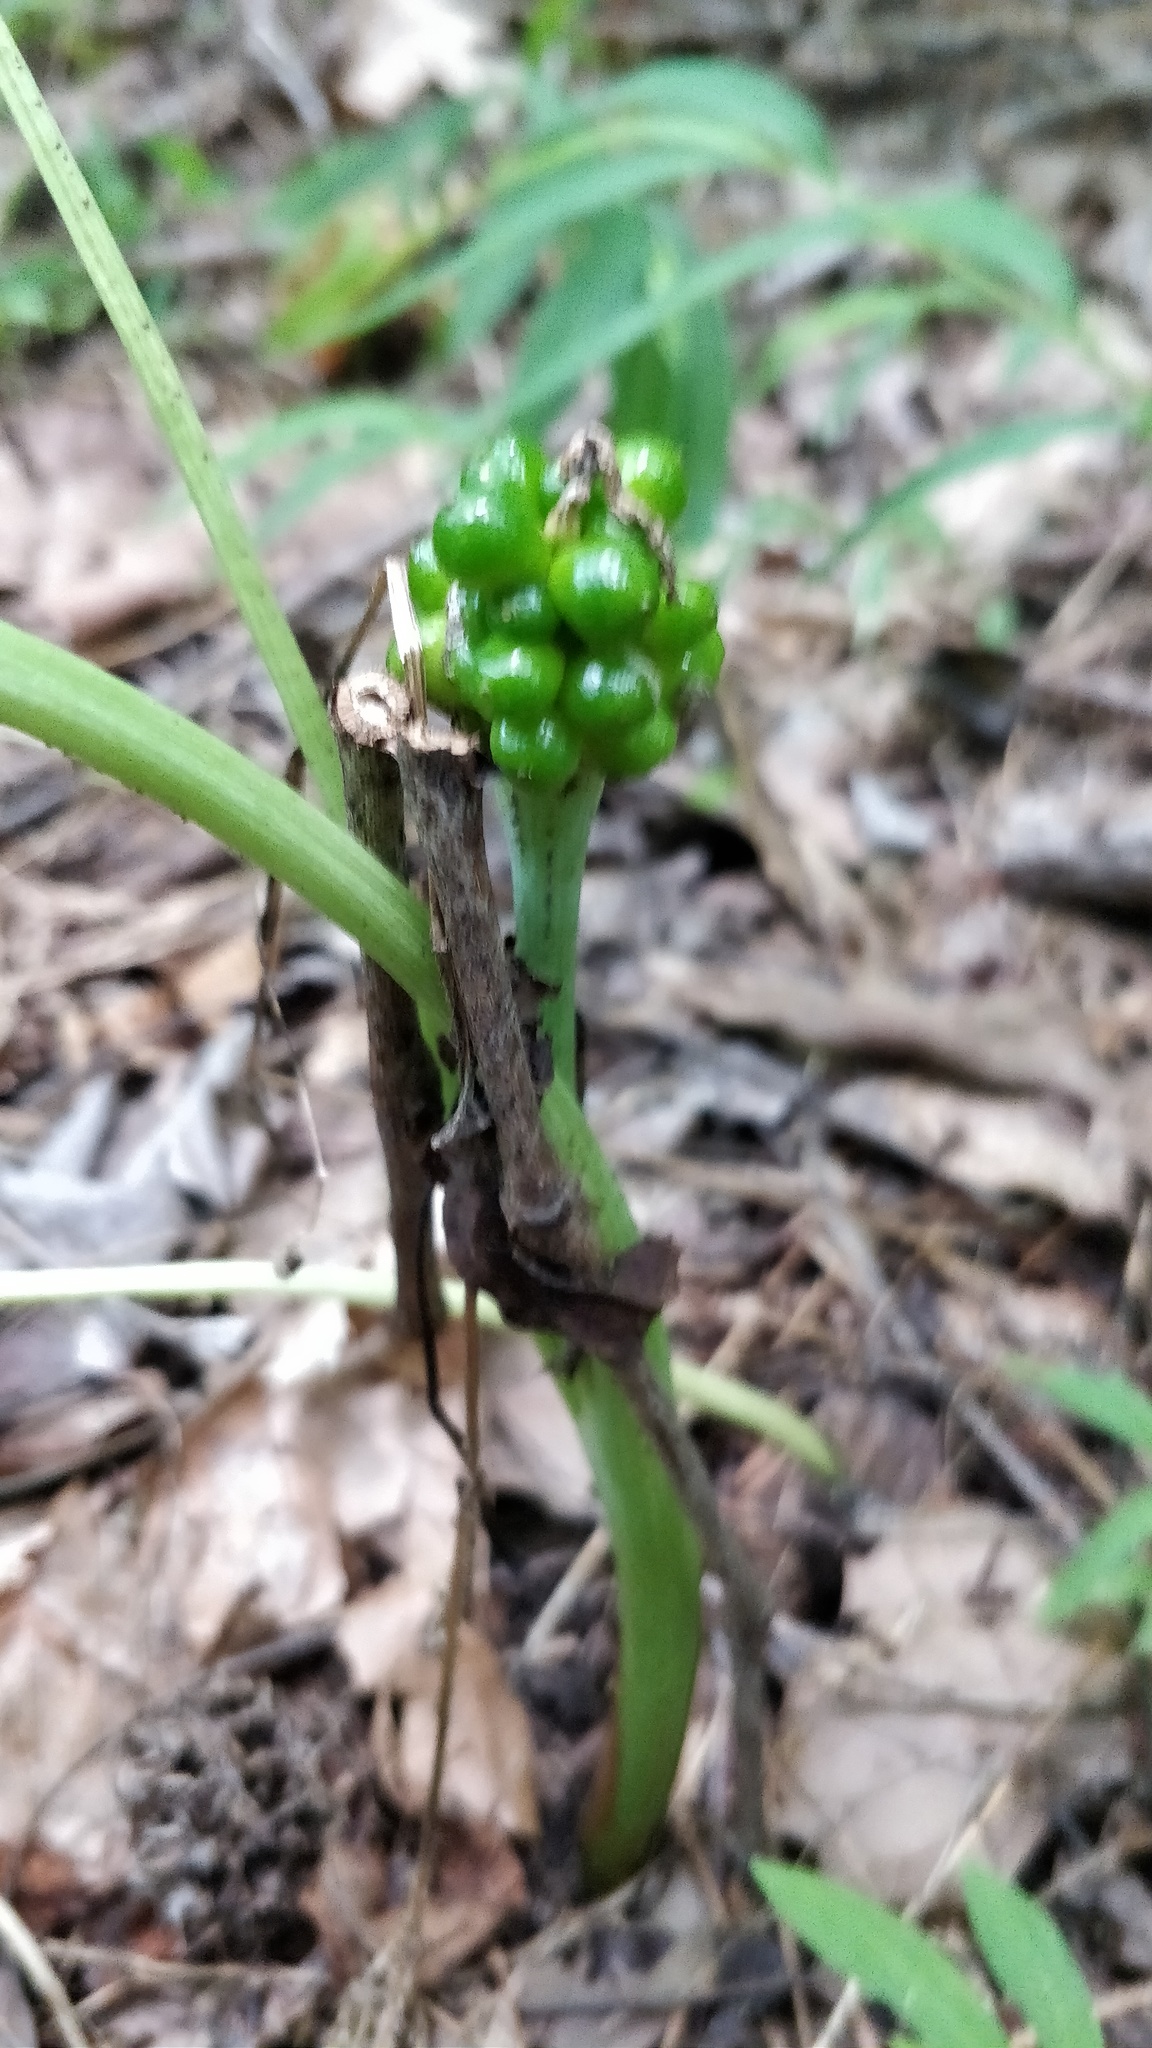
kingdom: Plantae
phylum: Tracheophyta
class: Liliopsida
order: Alismatales
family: Araceae
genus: Arisaema
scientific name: Arisaema triphyllum
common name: Jack-in-the-pulpit
